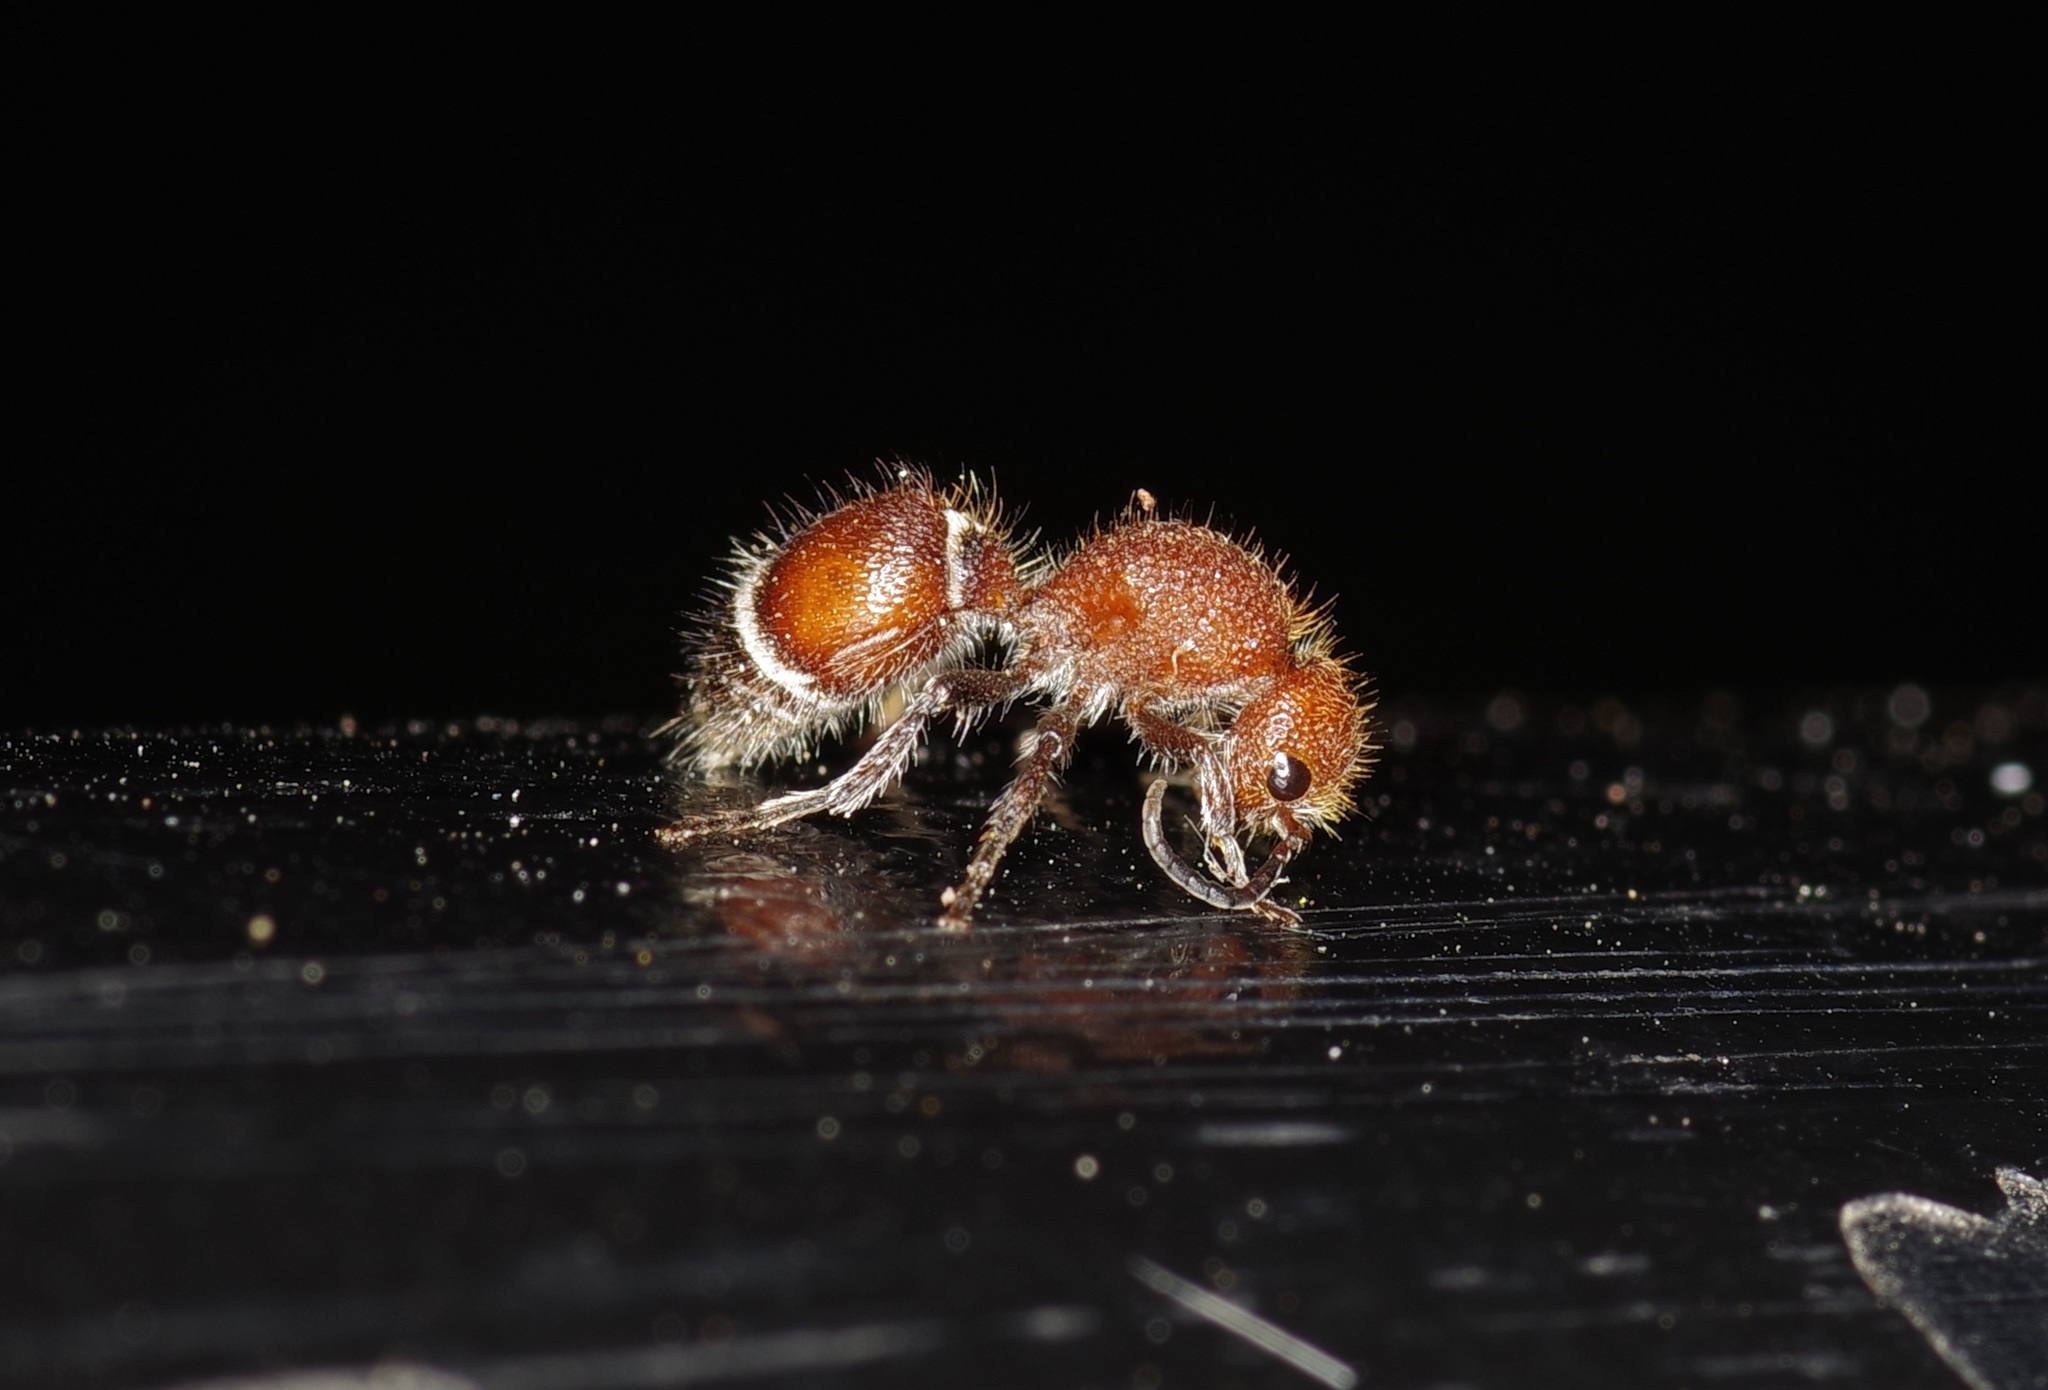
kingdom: Animalia
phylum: Arthropoda
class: Insecta
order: Hymenoptera
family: Mutillidae
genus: Sphaeropthalma
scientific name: Sphaeropthalma
